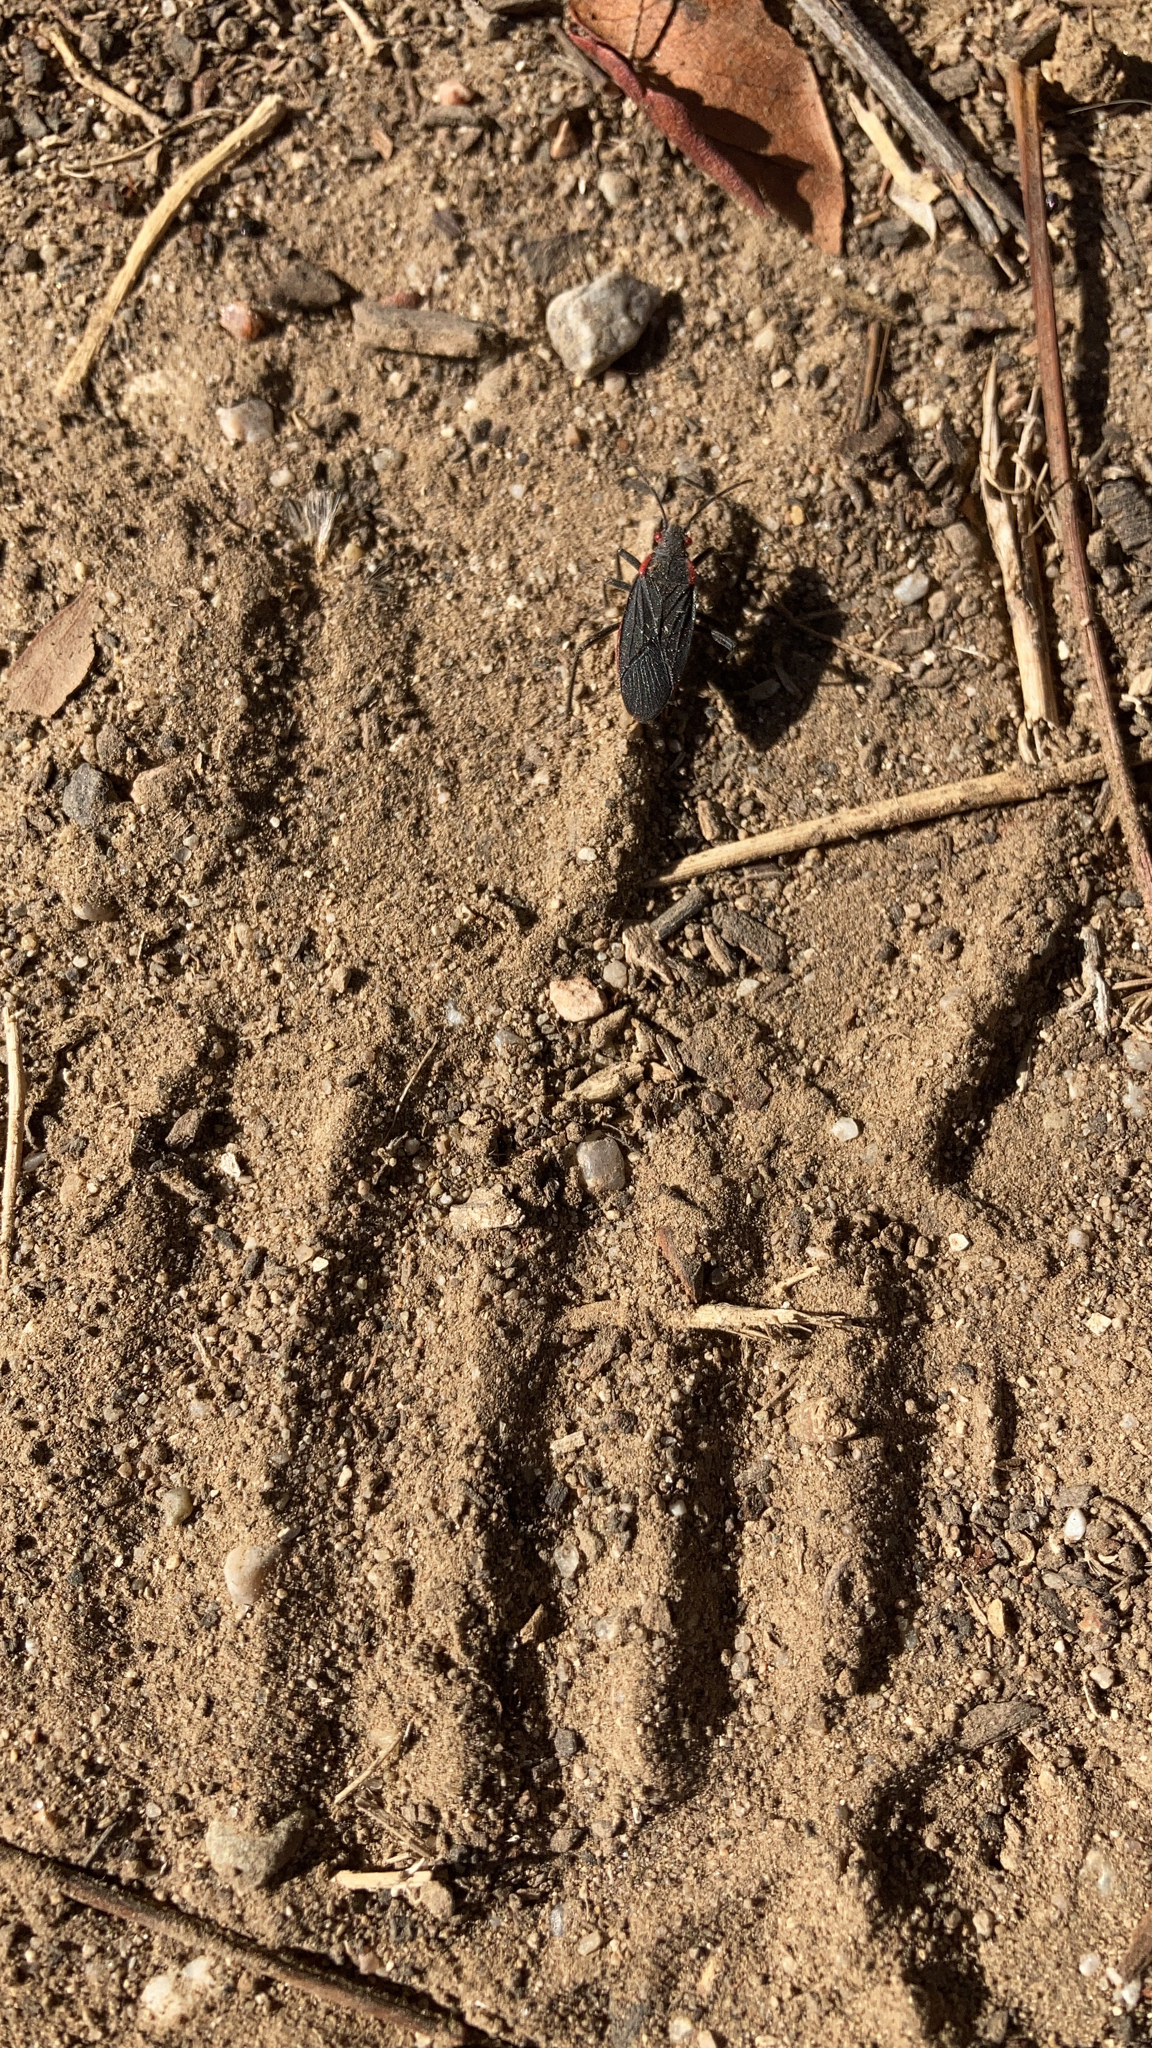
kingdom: Animalia
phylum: Arthropoda
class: Insecta
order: Hemiptera
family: Rhopalidae
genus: Jadera
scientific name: Jadera haematoloma
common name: Red-shouldered bug
